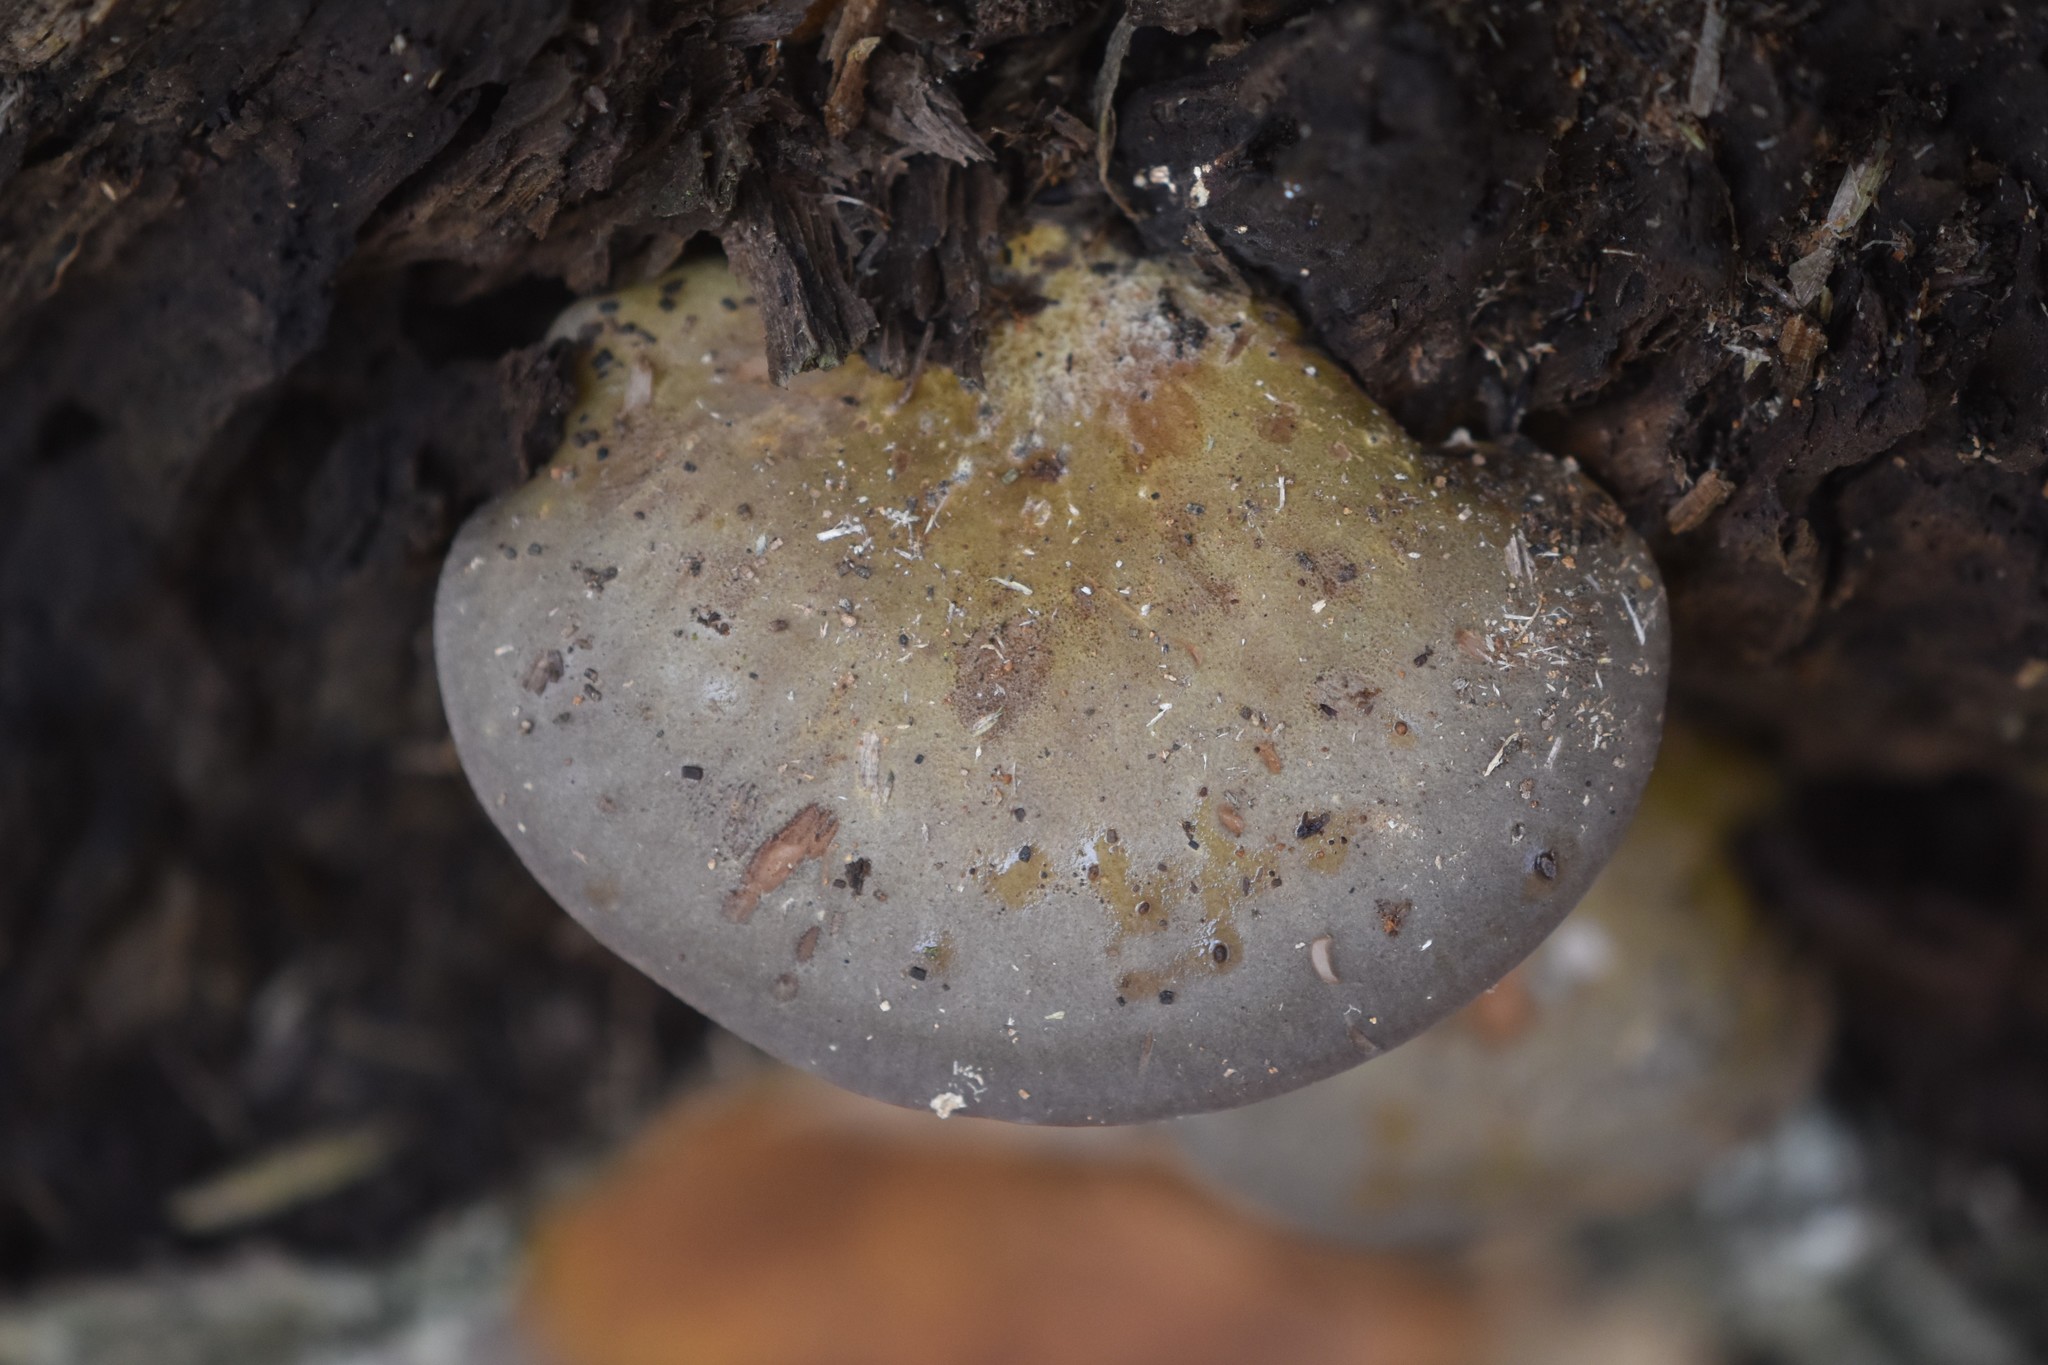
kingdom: Fungi
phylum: Basidiomycota
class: Agaricomycetes
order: Agaricales
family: Sarcomyxaceae
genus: Sarcomyxa
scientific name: Sarcomyxa serotina
